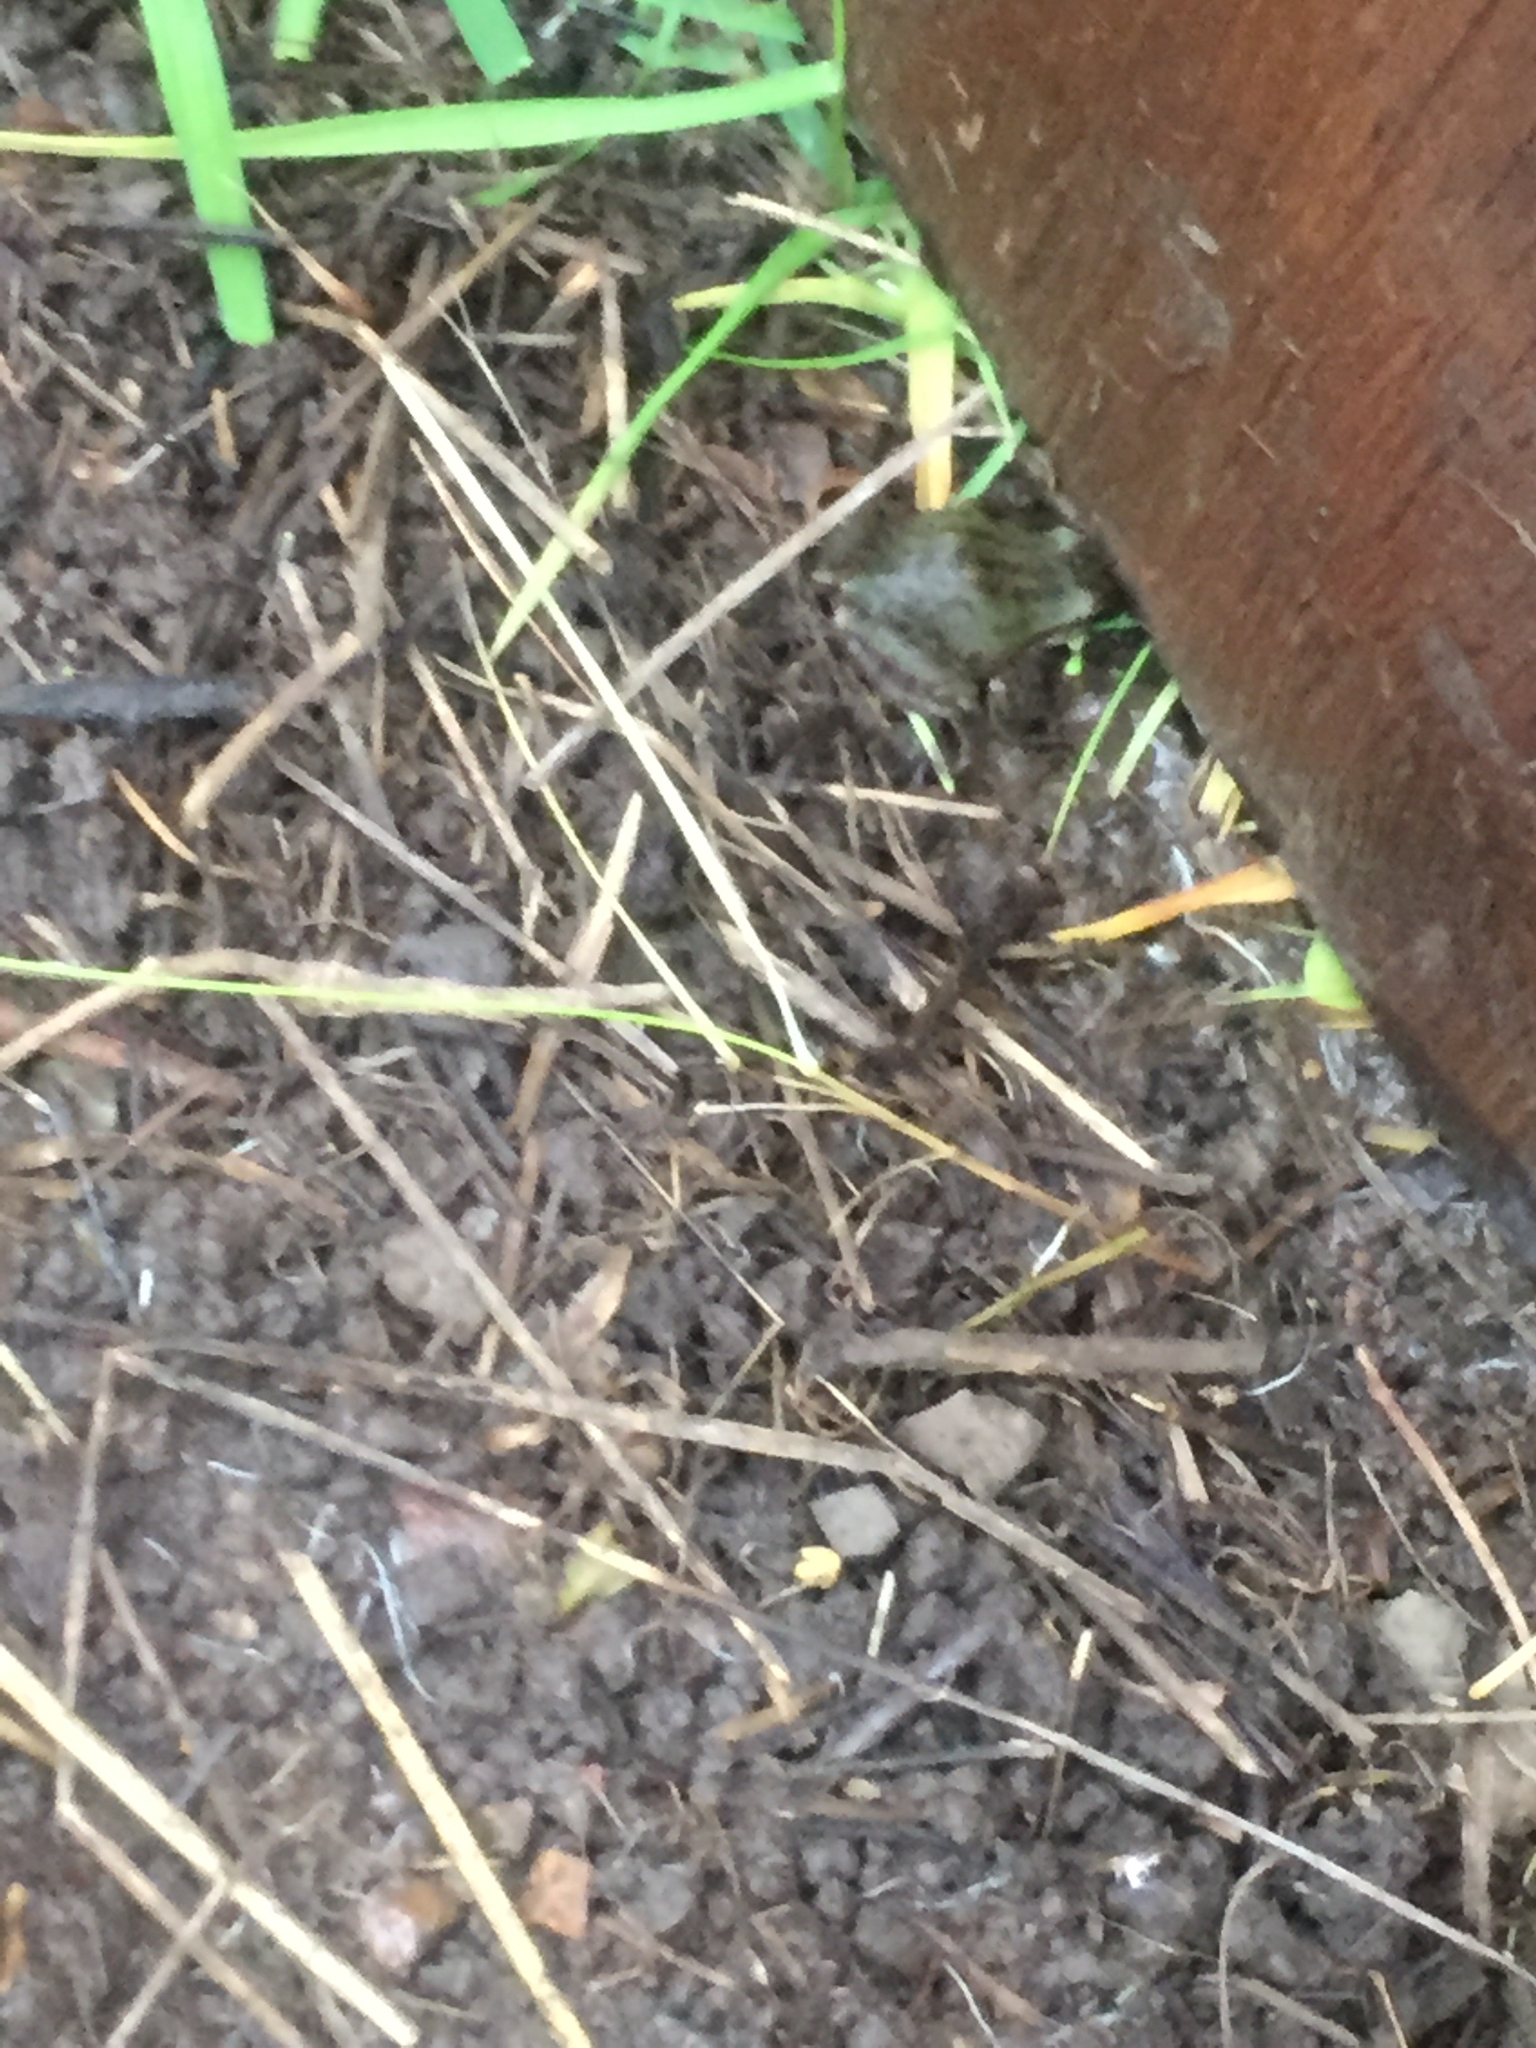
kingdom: Animalia
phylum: Chordata
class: Amphibia
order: Anura
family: Hylidae
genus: Pseudacris
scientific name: Pseudacris regilla
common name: Pacific chorus frog
